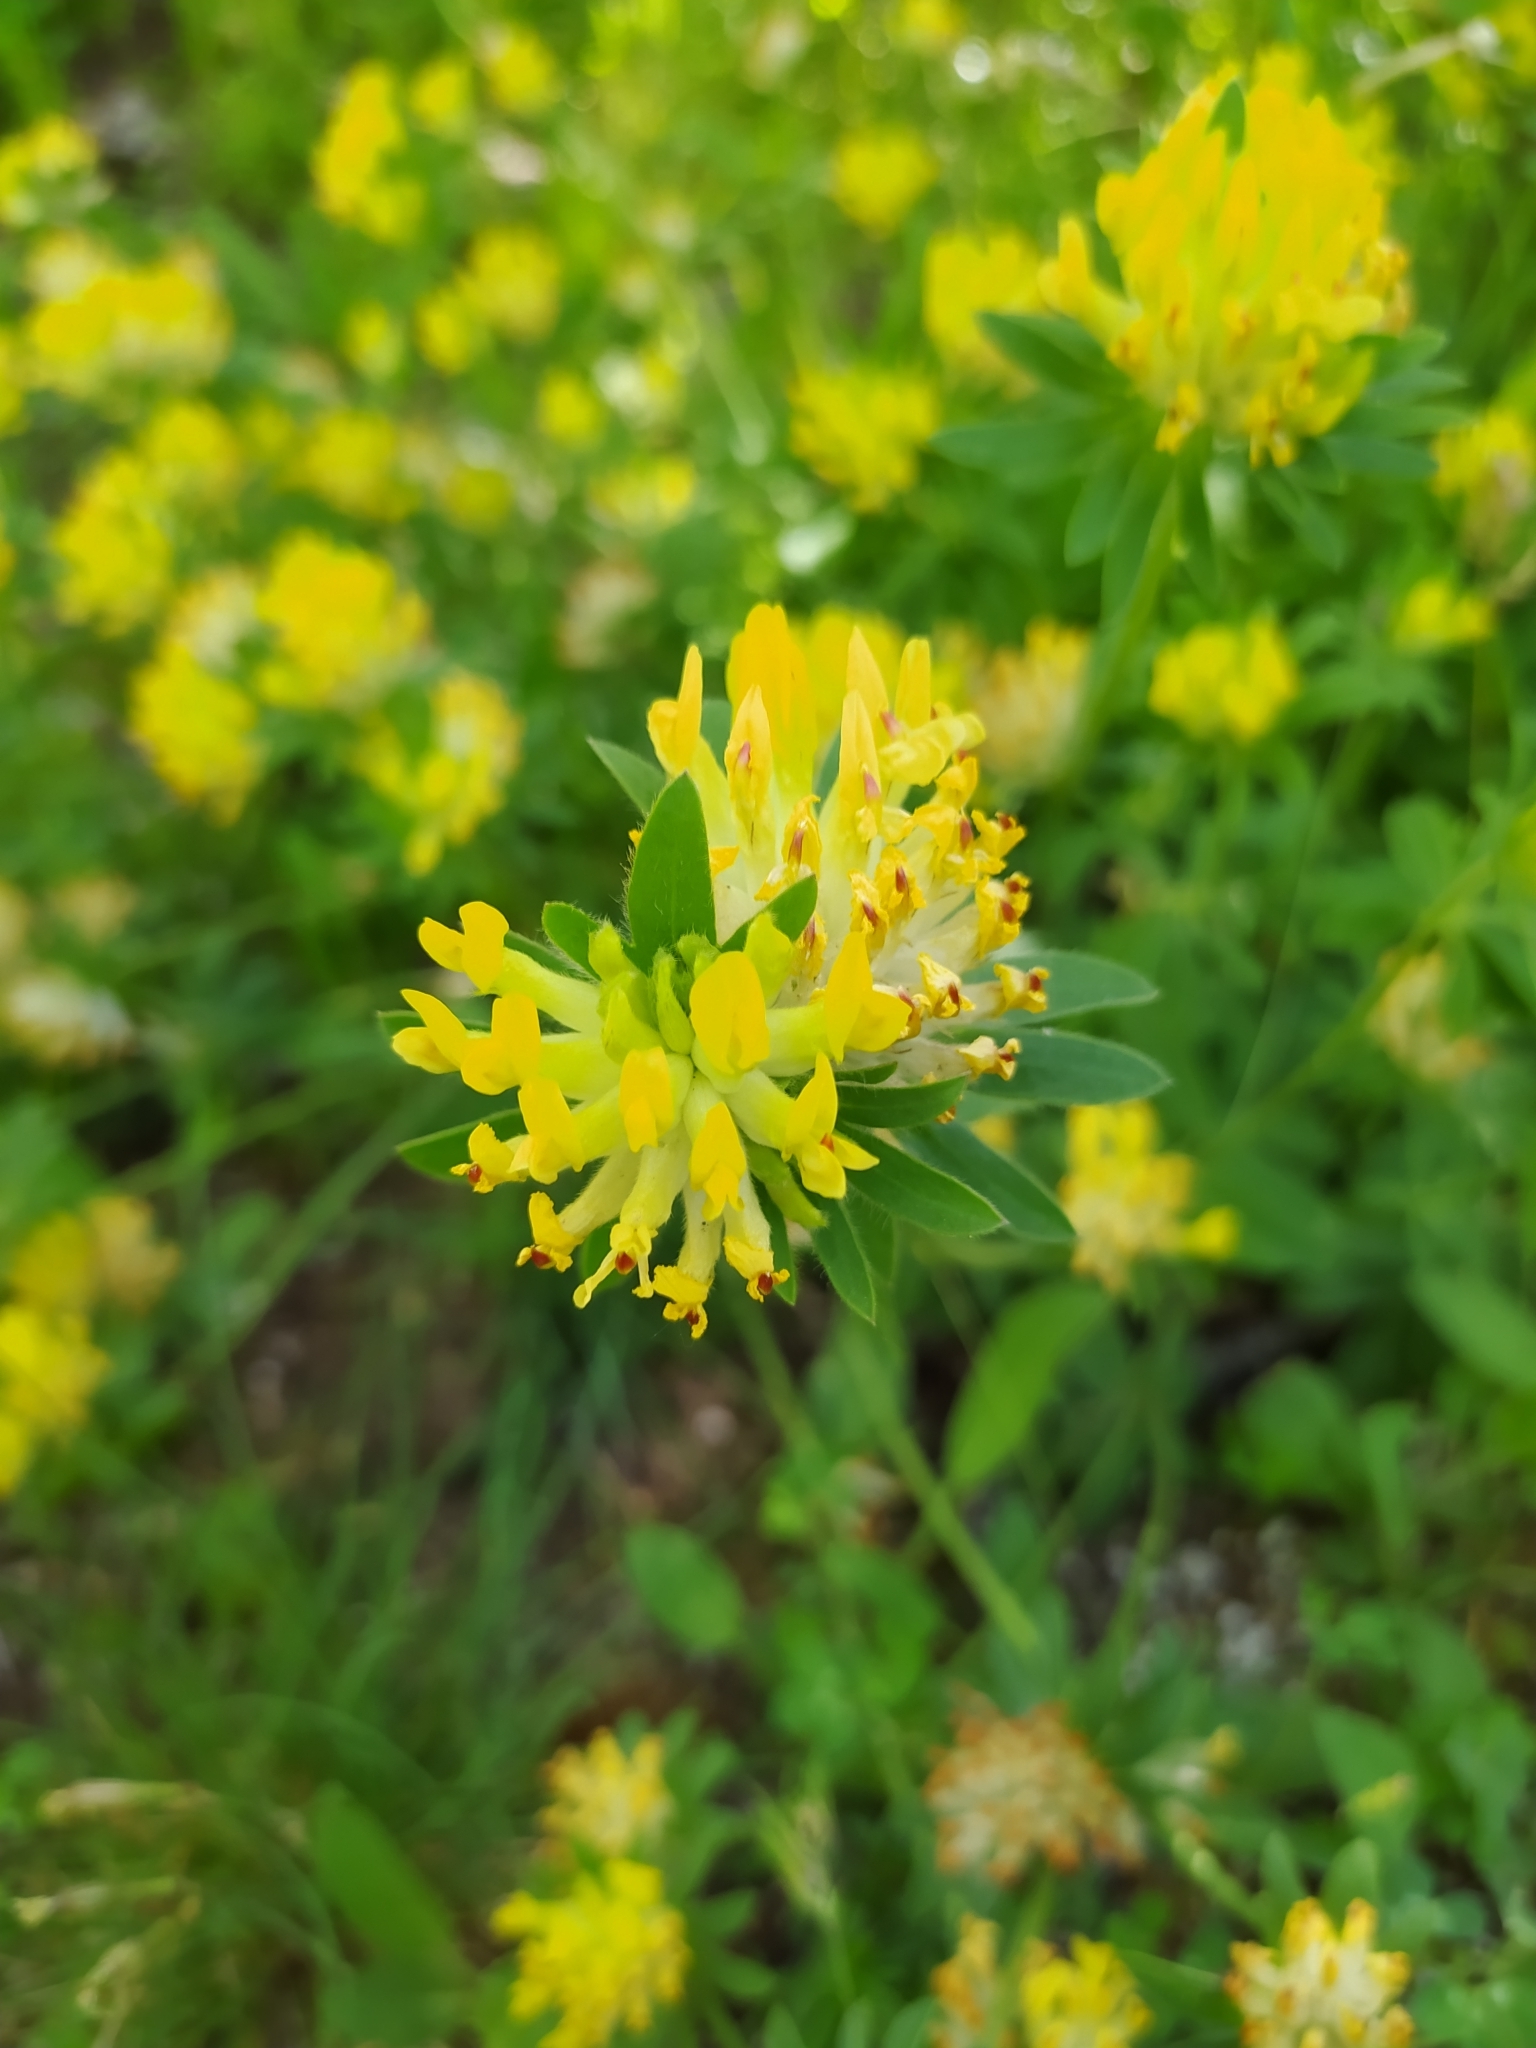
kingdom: Plantae
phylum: Tracheophyta
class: Magnoliopsida
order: Fabales
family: Fabaceae
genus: Anthyllis
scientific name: Anthyllis vulneraria
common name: Kidney vetch
